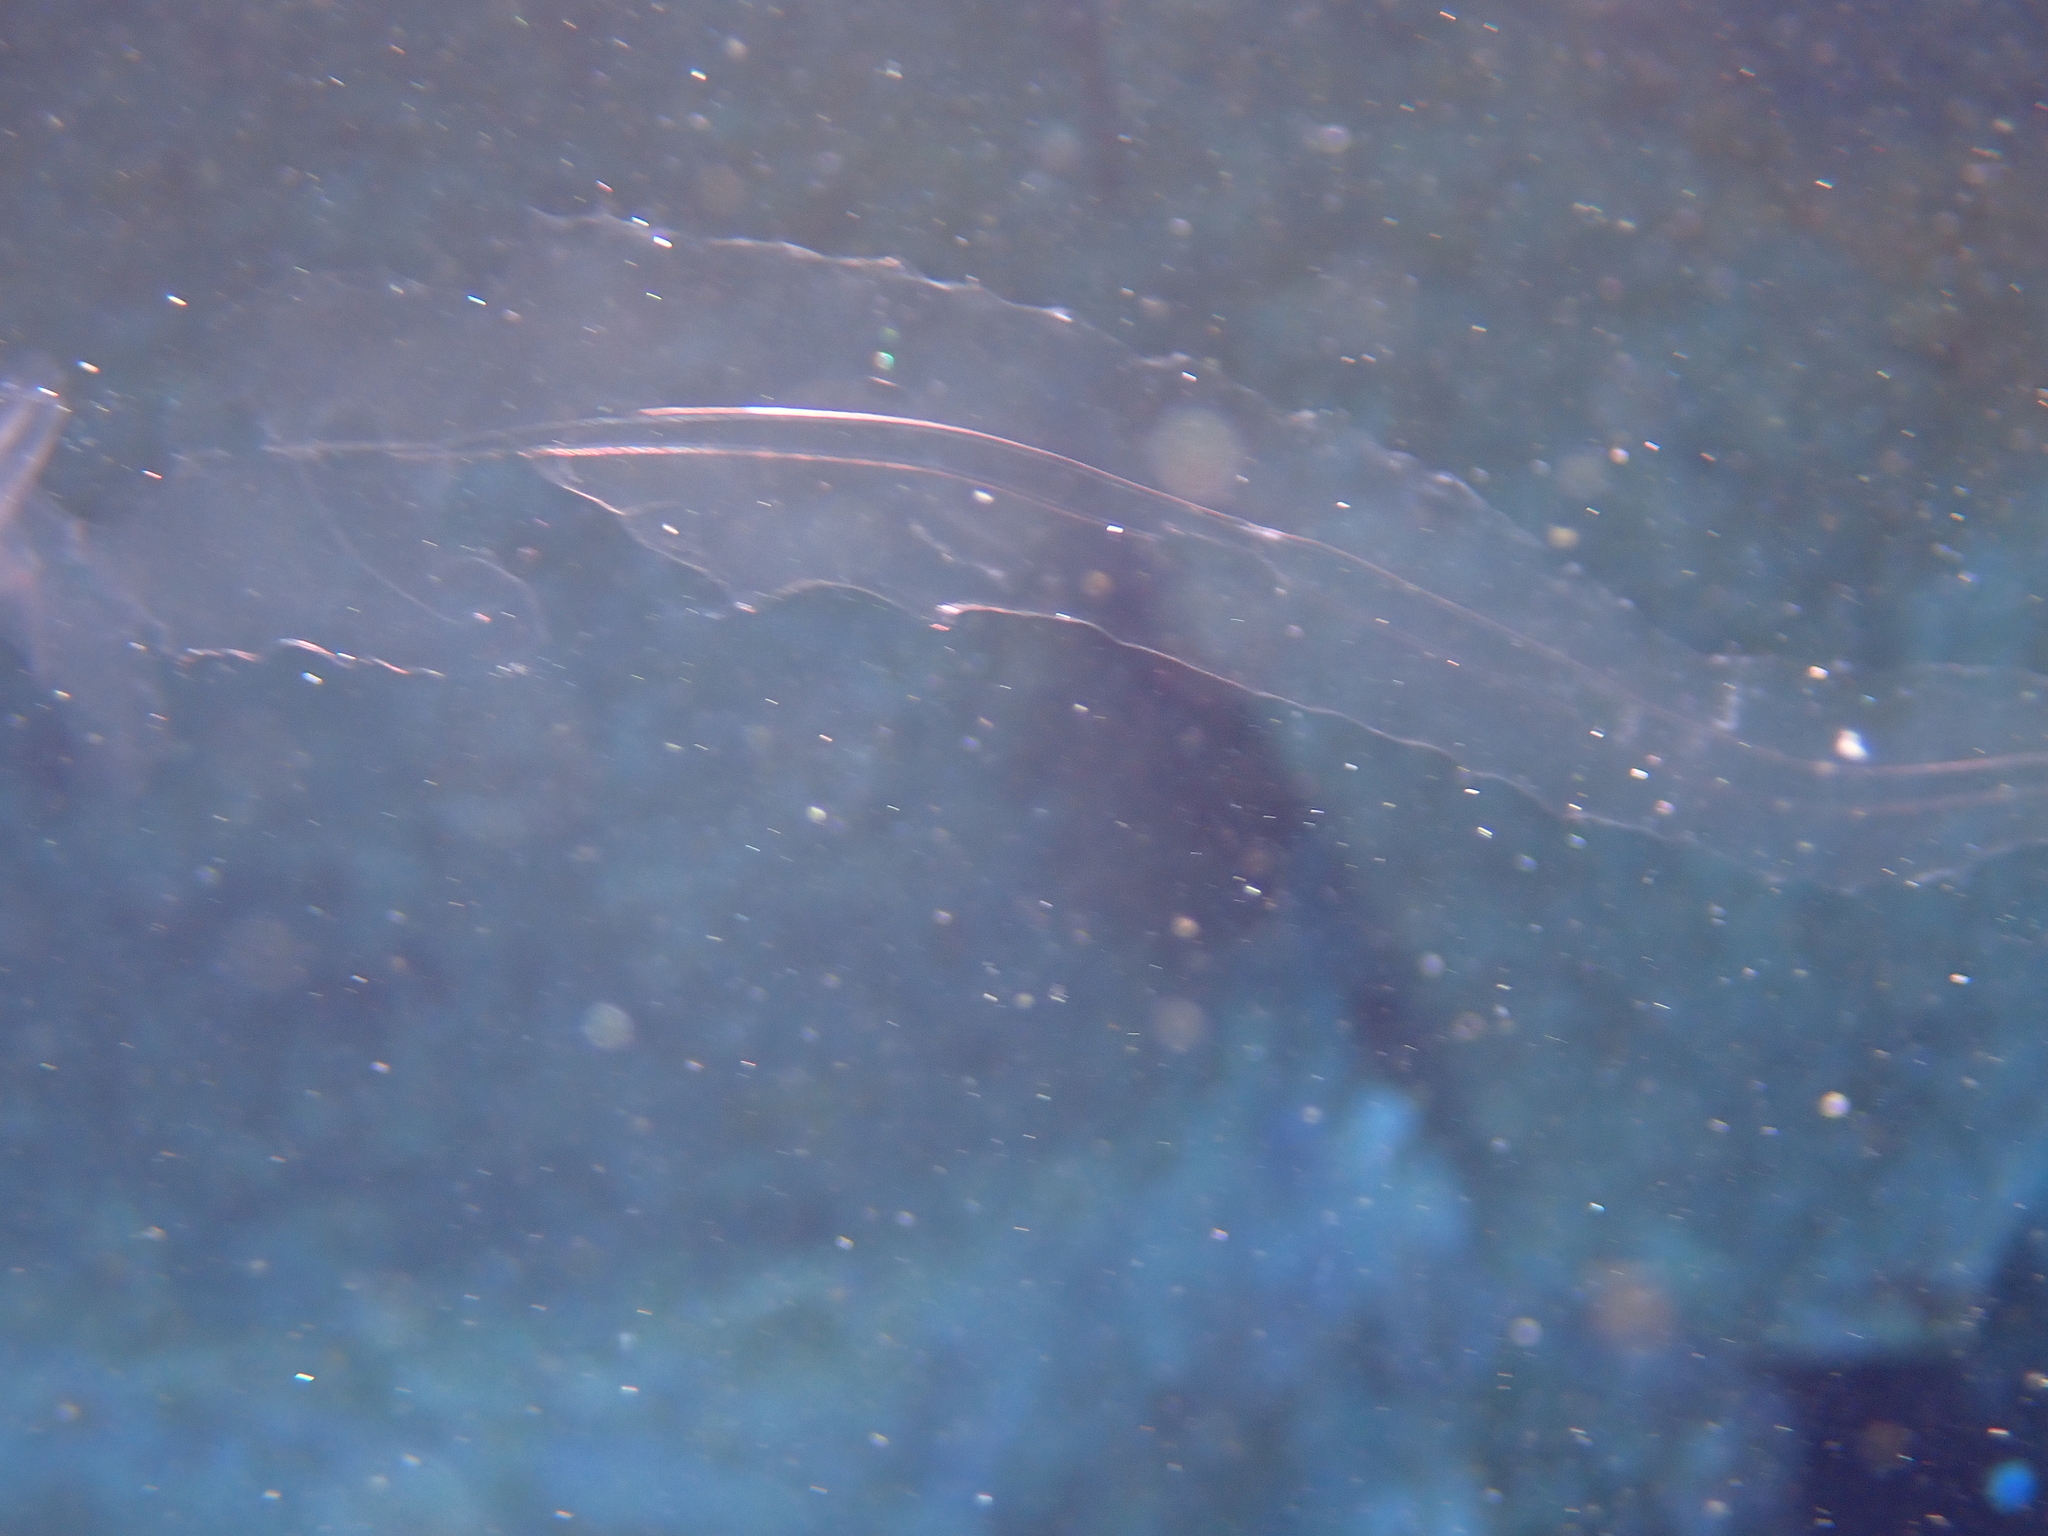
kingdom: Animalia
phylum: Ctenophora
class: Tentaculata
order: Cestida
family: Cestidae
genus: Cestum
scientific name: Cestum veneris
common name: Venus girdle
